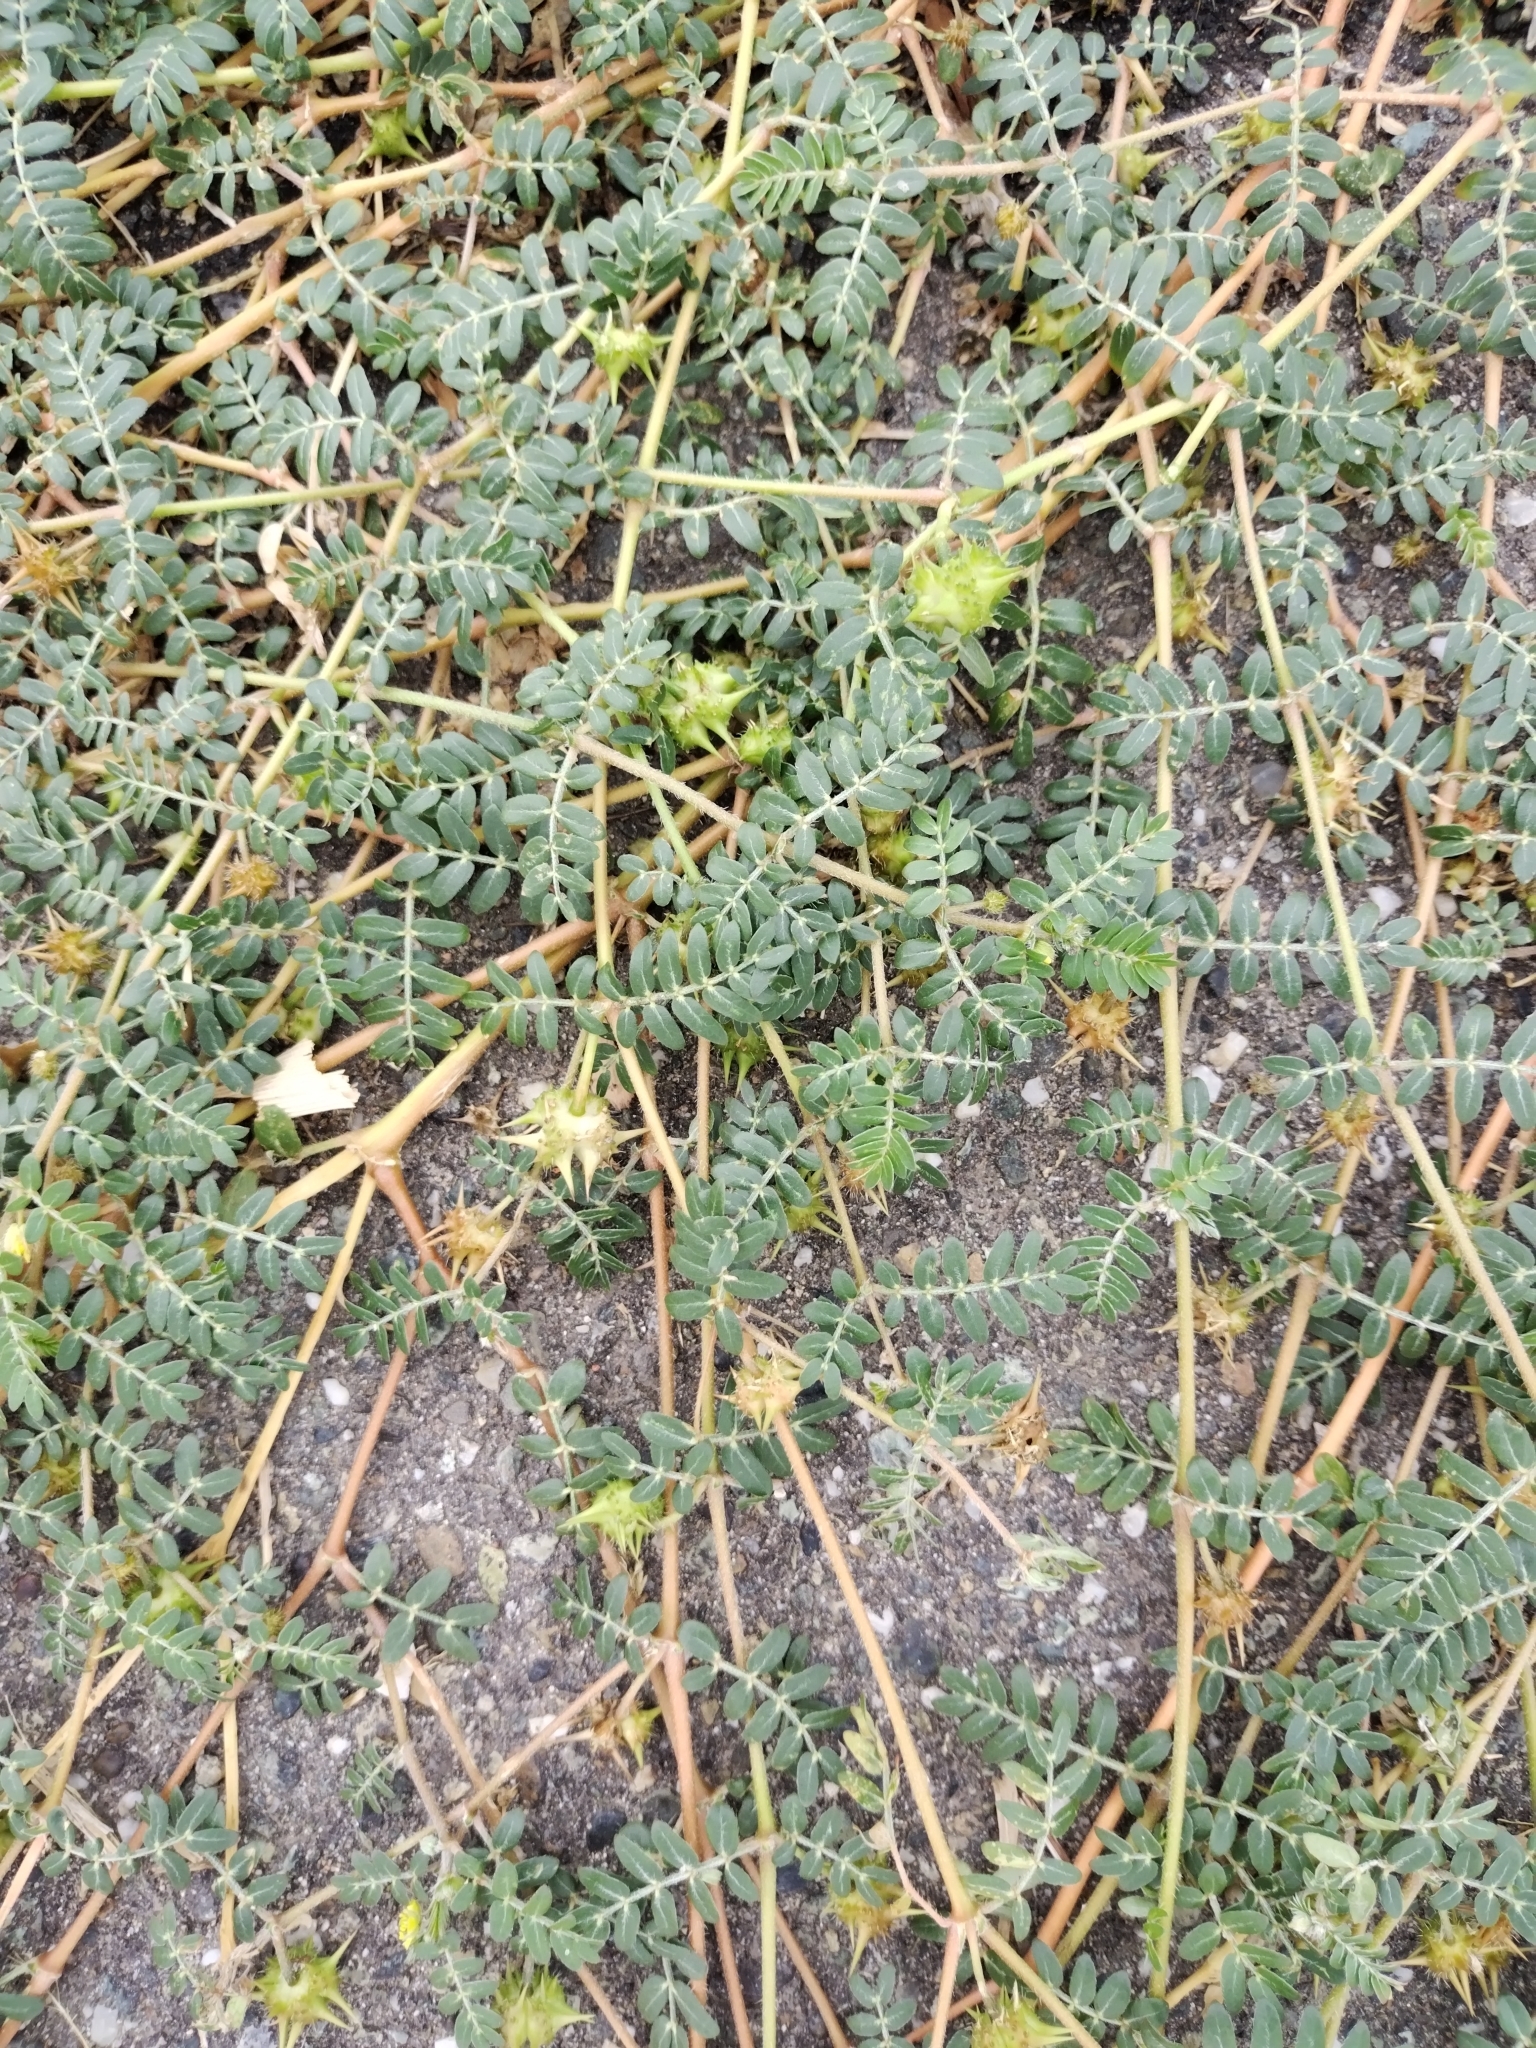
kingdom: Plantae
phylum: Tracheophyta
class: Magnoliopsida
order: Zygophyllales
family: Zygophyllaceae
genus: Tribulus
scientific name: Tribulus terrestris
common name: Puncturevine
